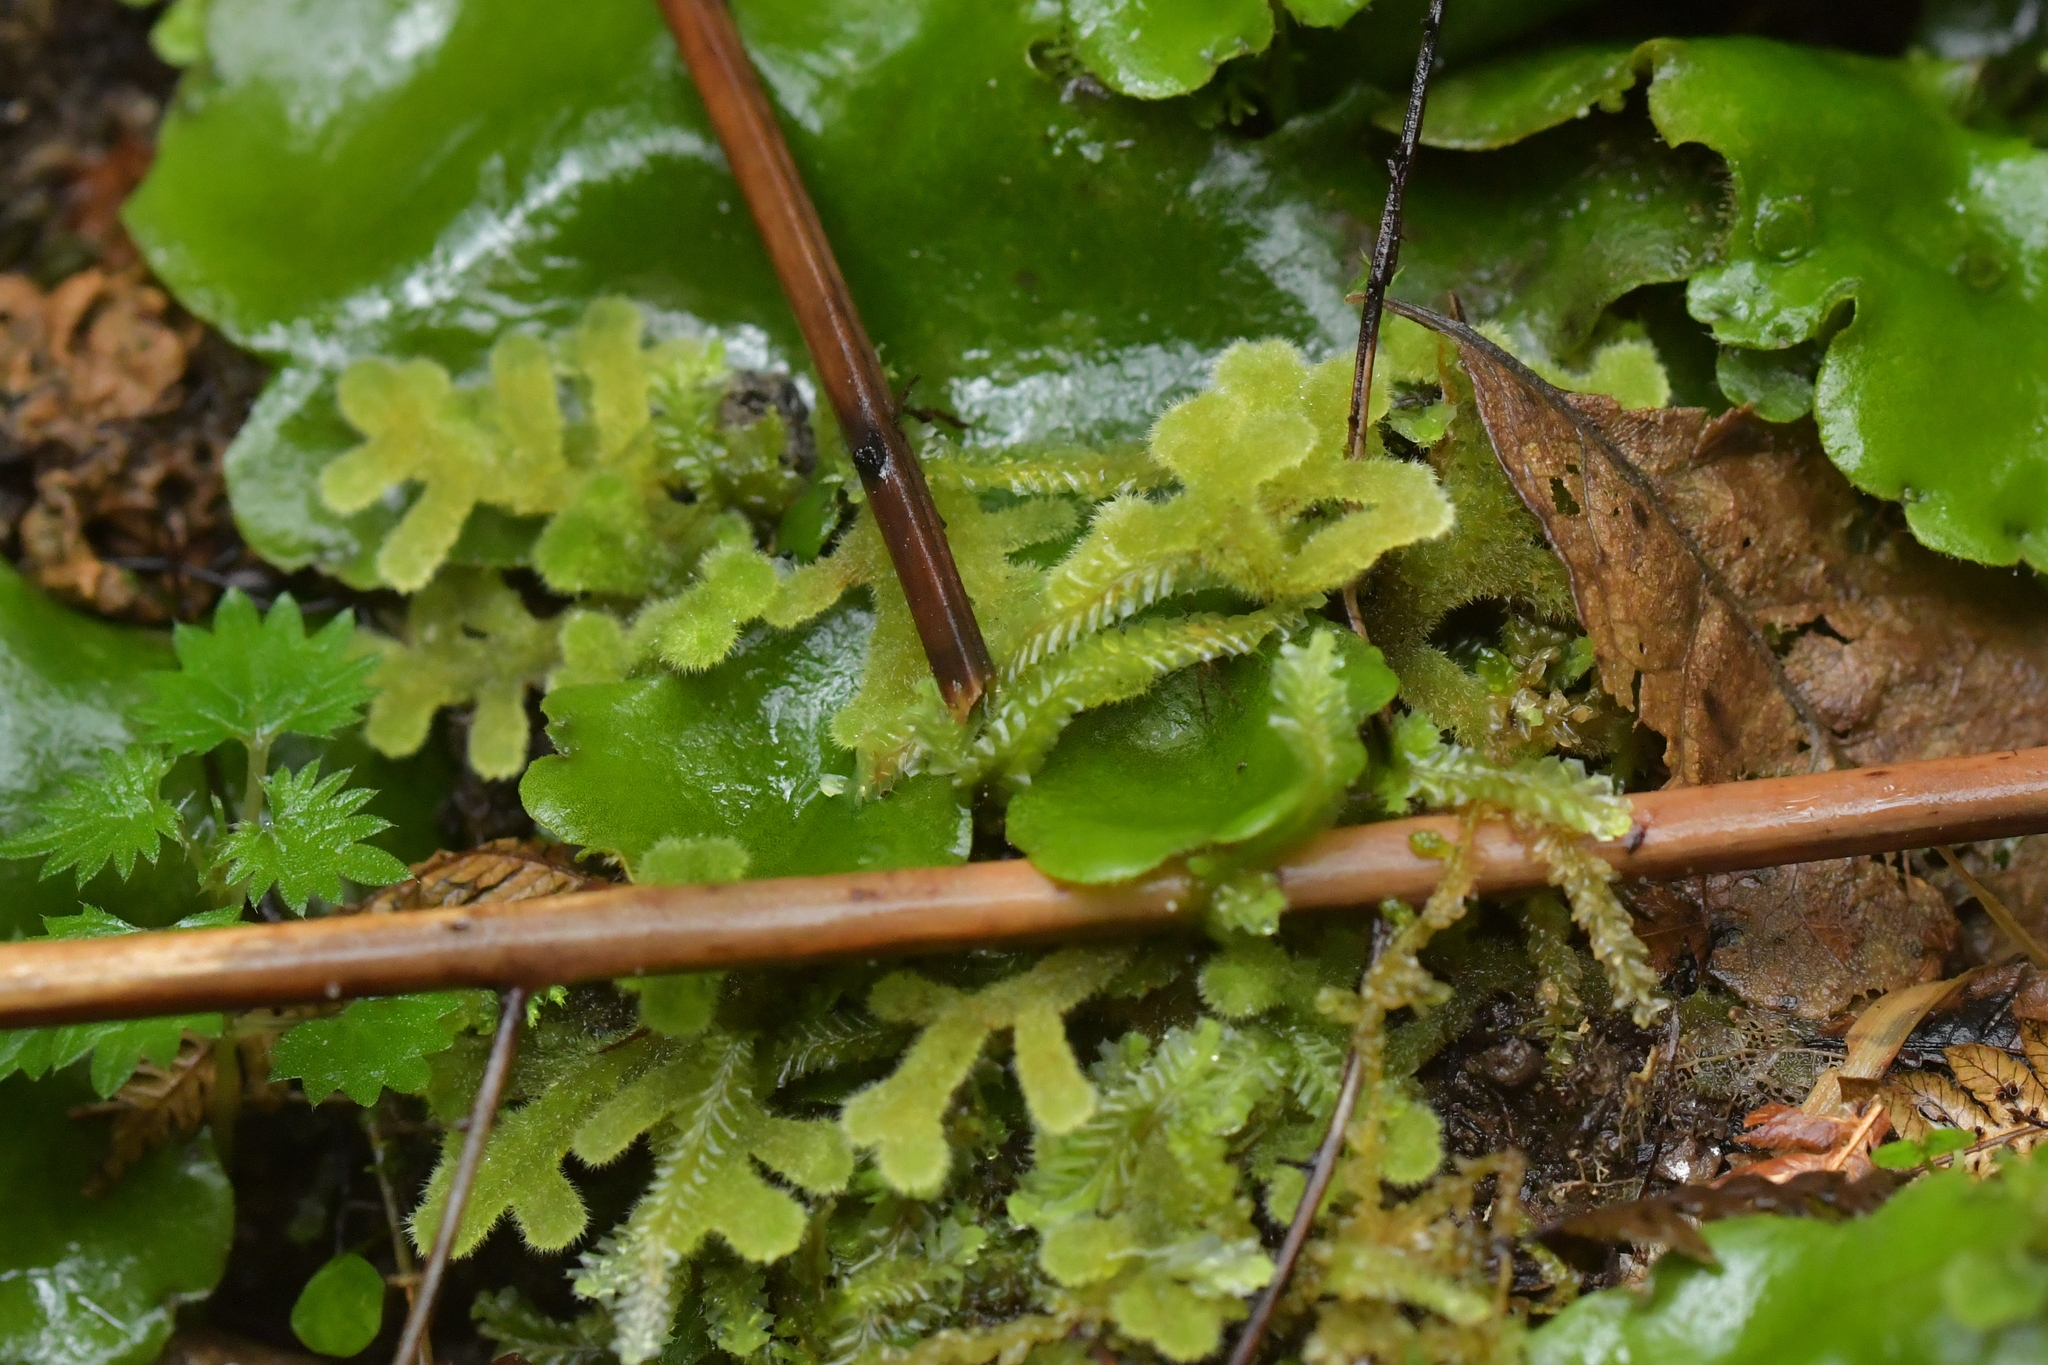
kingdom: Plantae
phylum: Marchantiophyta
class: Jungermanniopsida
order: Jungermanniales
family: Trichocoleaceae
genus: Leiomitra
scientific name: Leiomitra lanata
